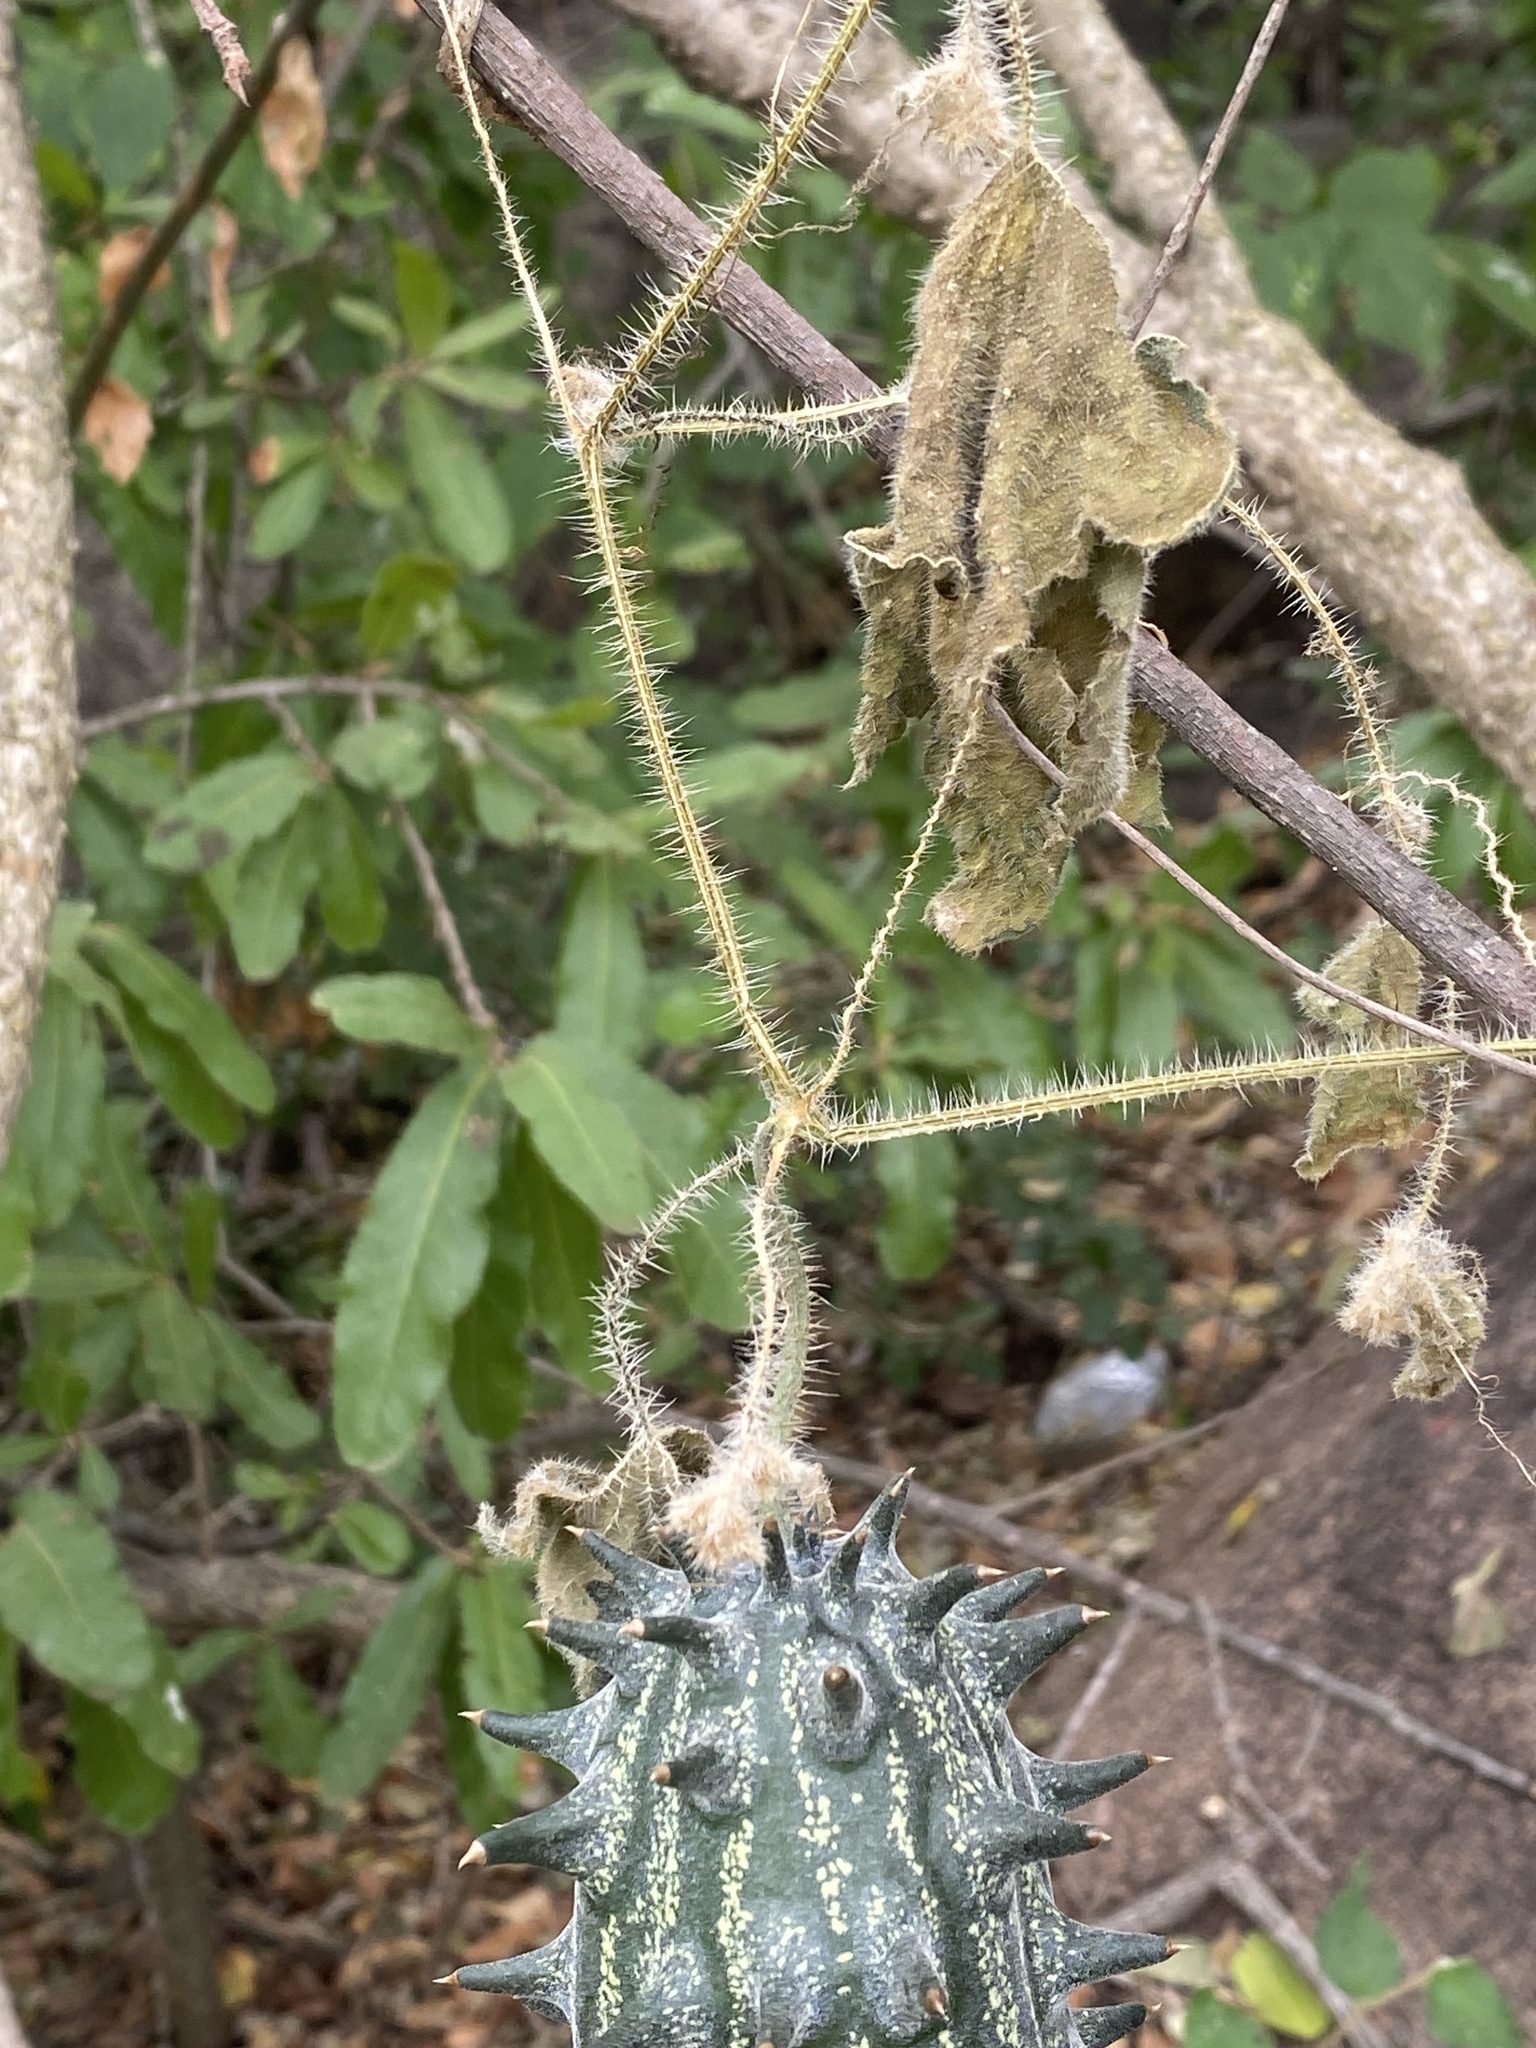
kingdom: Plantae
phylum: Tracheophyta
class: Magnoliopsida
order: Cucurbitales
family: Cucurbitaceae
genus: Cucumis
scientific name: Cucumis metuliferus
